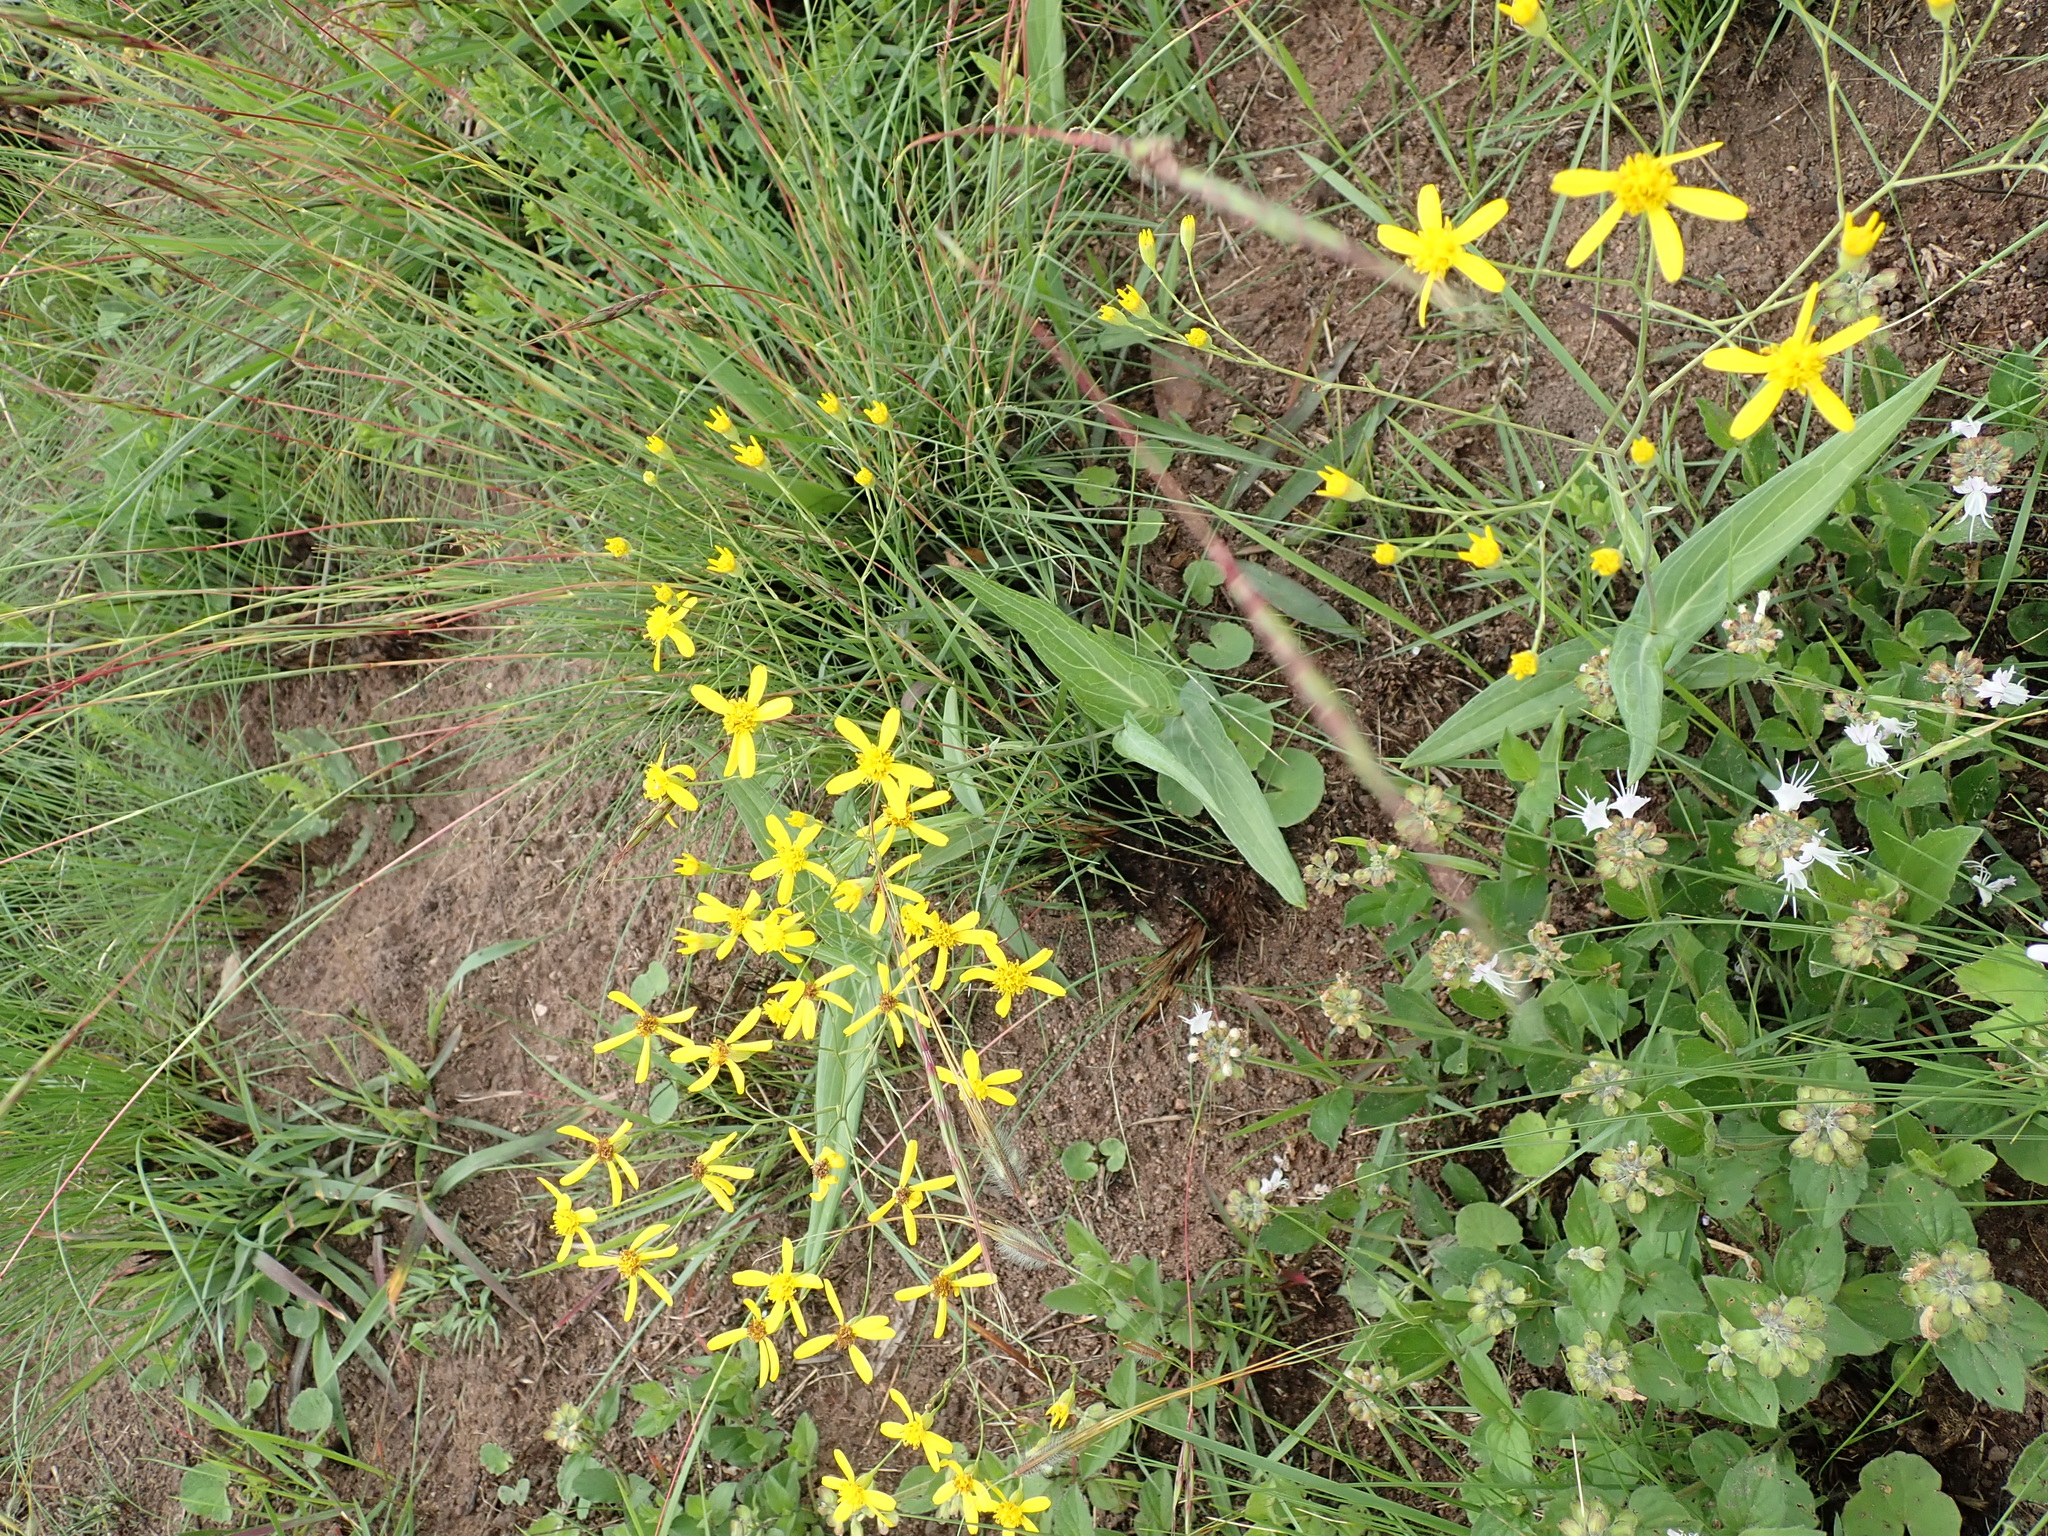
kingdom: Plantae
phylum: Tracheophyta
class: Magnoliopsida
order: Asterales
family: Asteraceae
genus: Senecio
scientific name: Senecio bupleuroides
